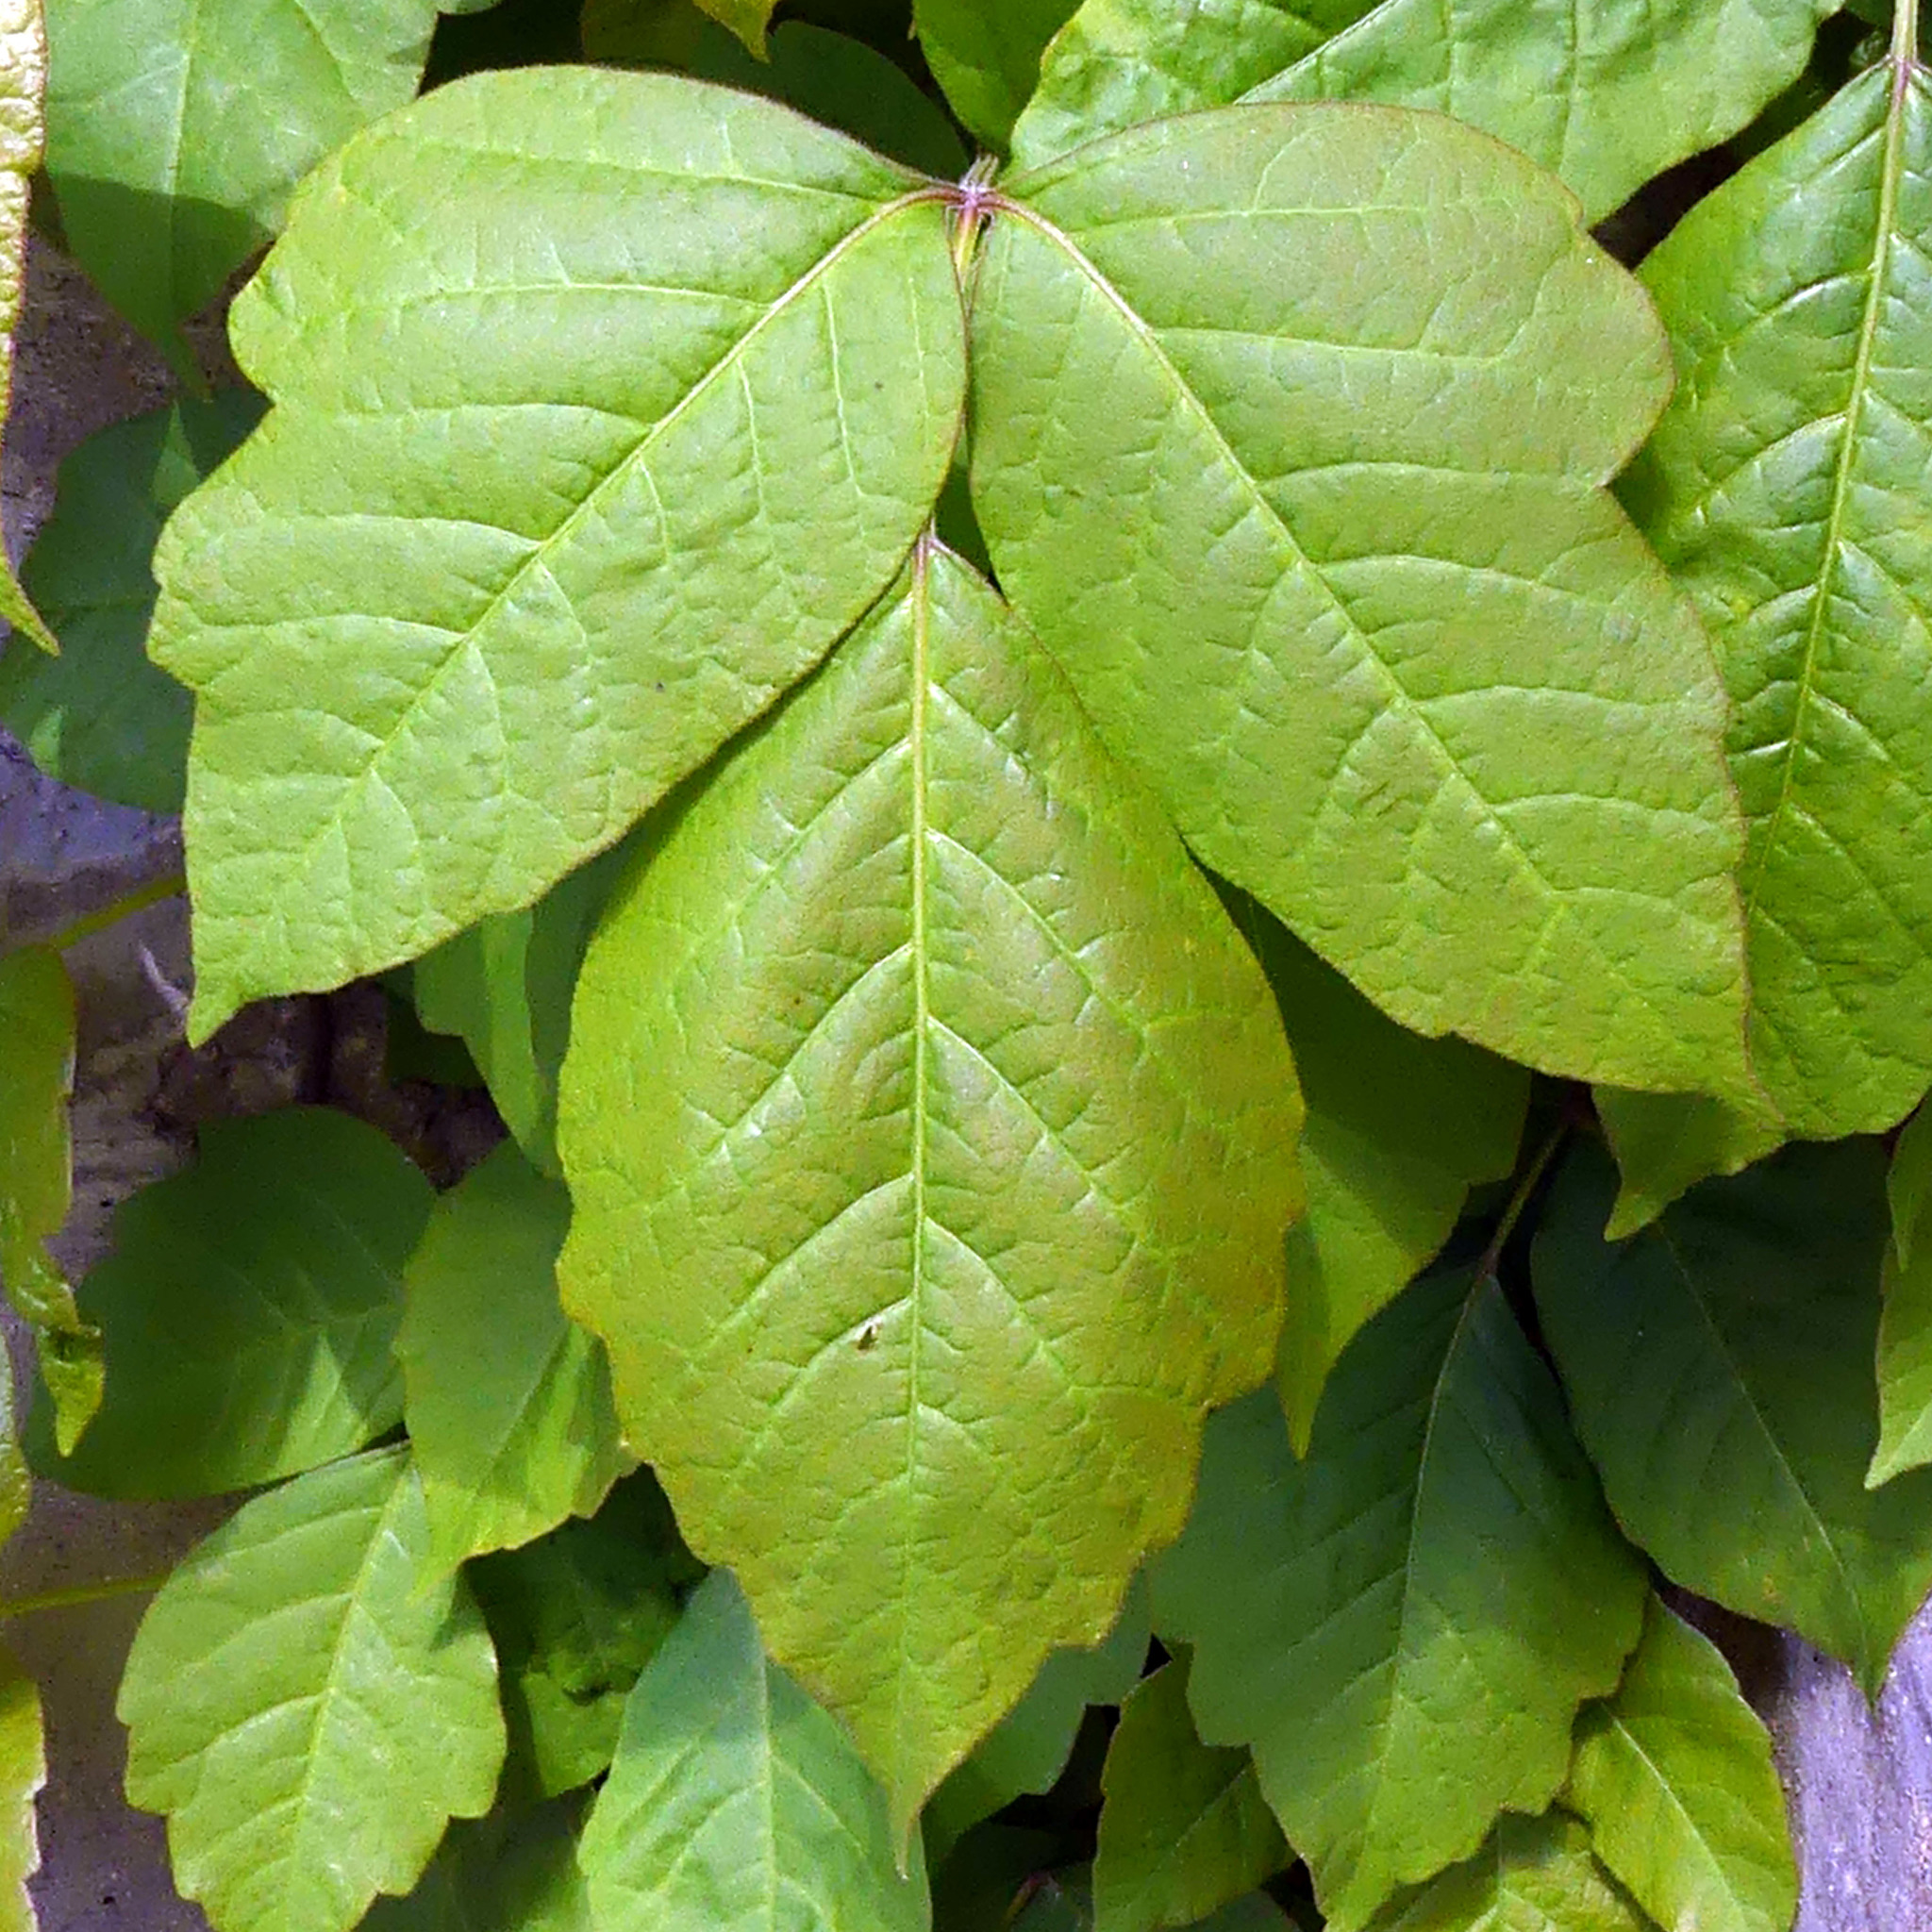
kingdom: Plantae
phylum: Tracheophyta
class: Magnoliopsida
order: Sapindales
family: Anacardiaceae
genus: Toxicodendron
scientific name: Toxicodendron radicans
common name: Poison ivy
